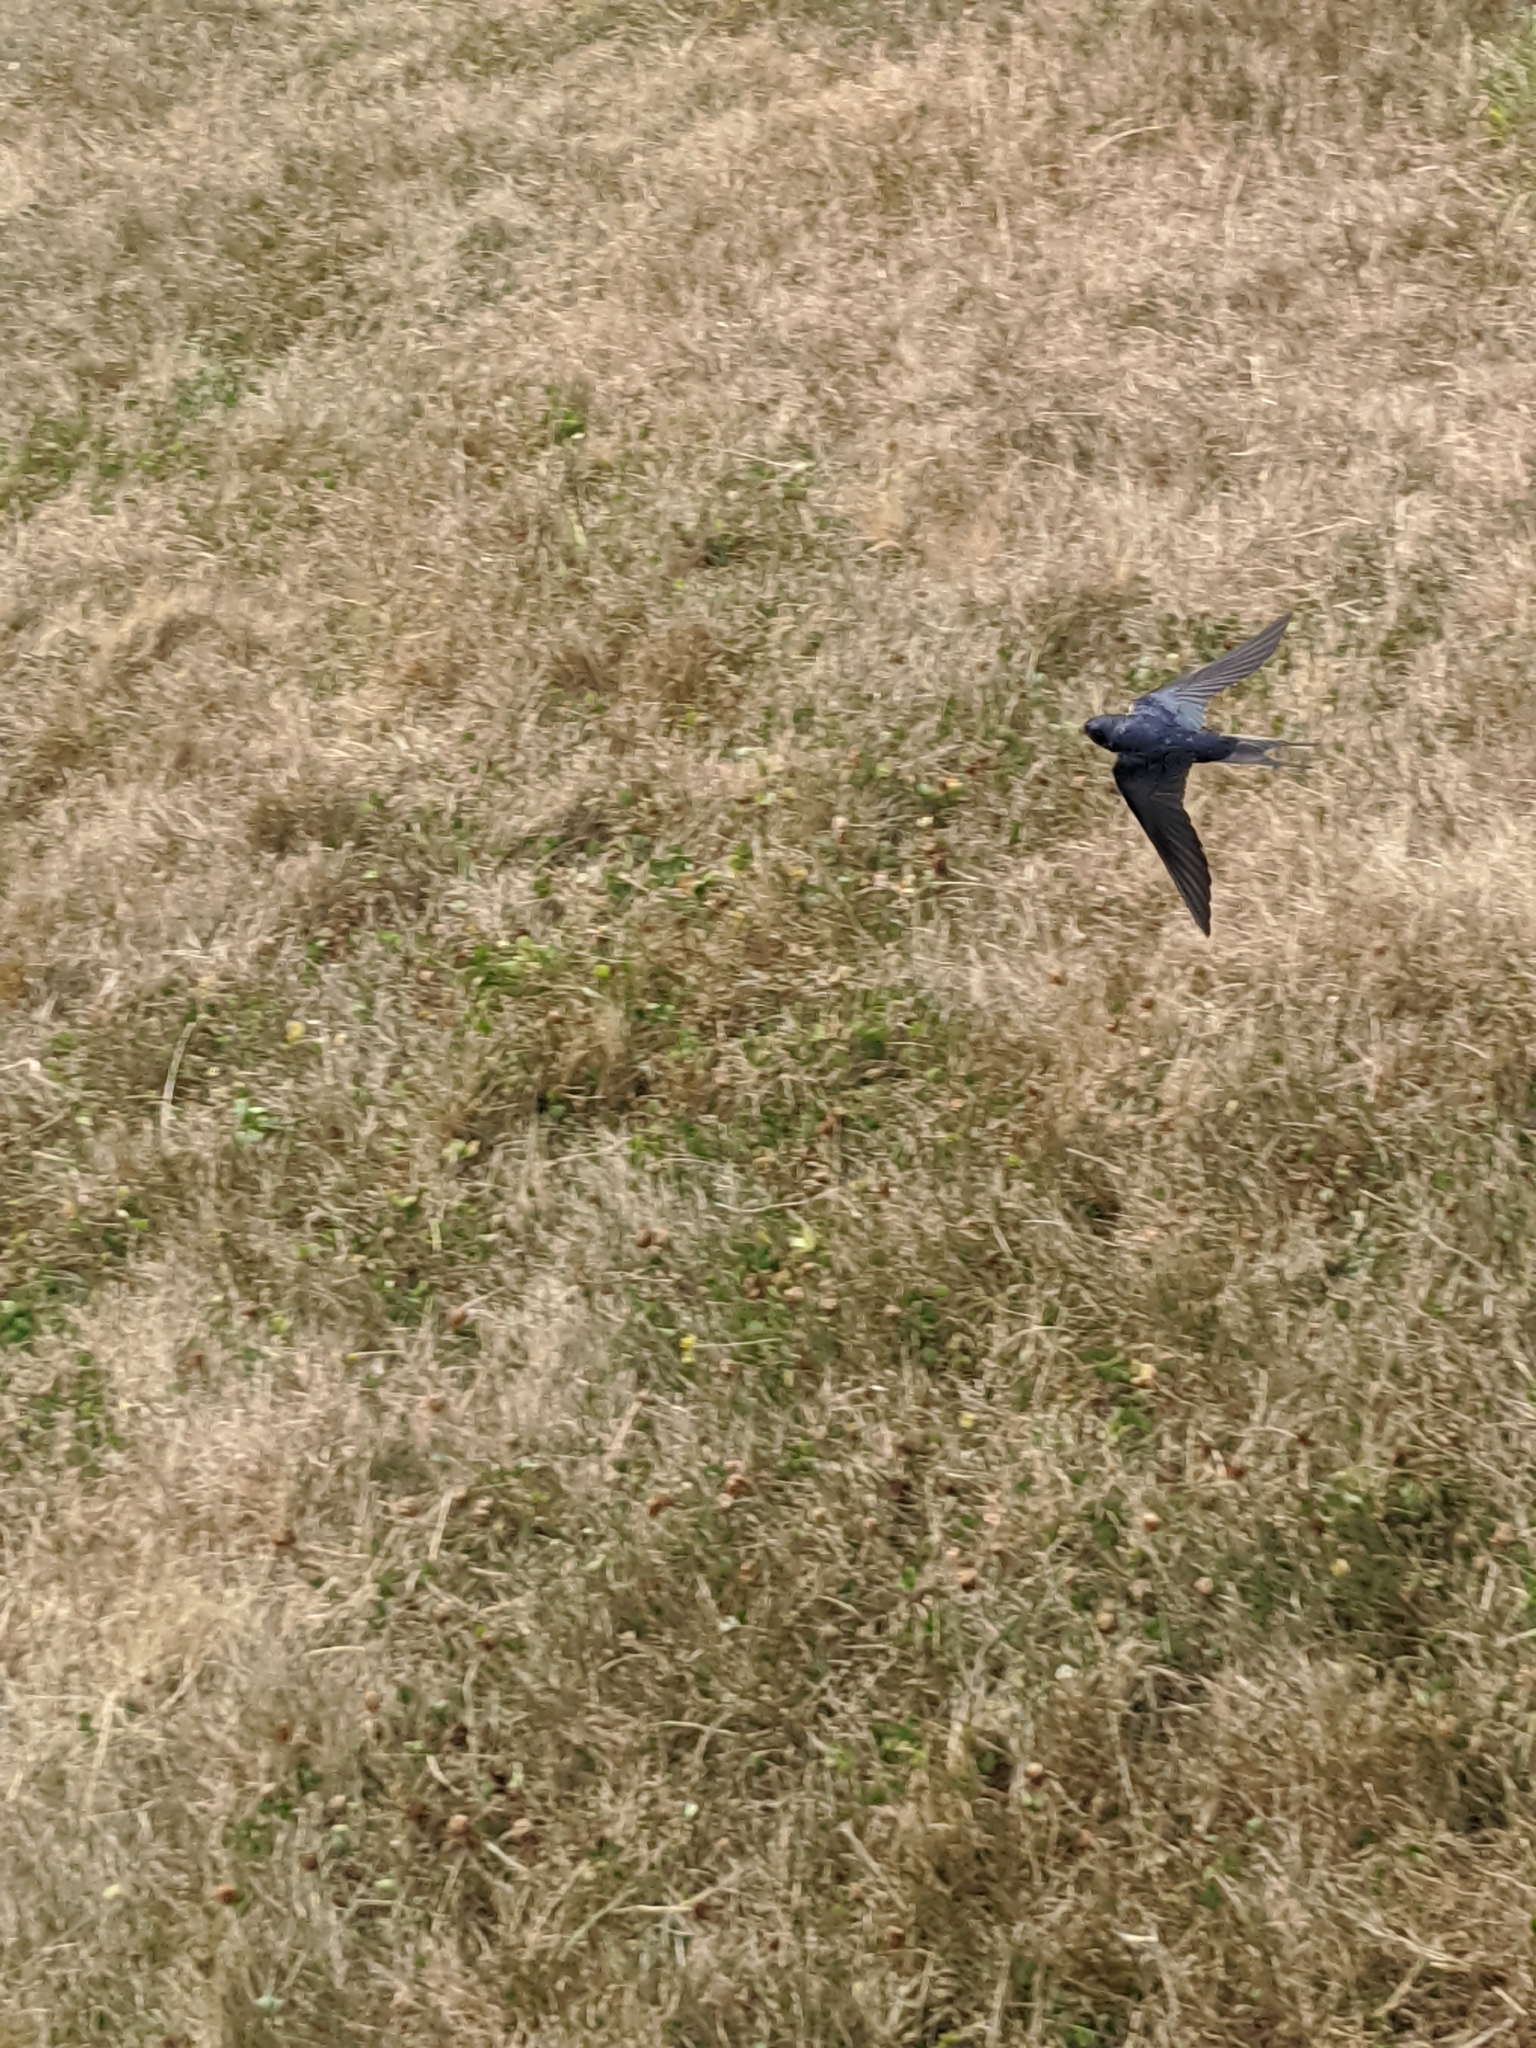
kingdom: Animalia
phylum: Chordata
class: Aves
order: Passeriformes
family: Hirundinidae
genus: Hirundo
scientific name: Hirundo rustica
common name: Barn swallow
